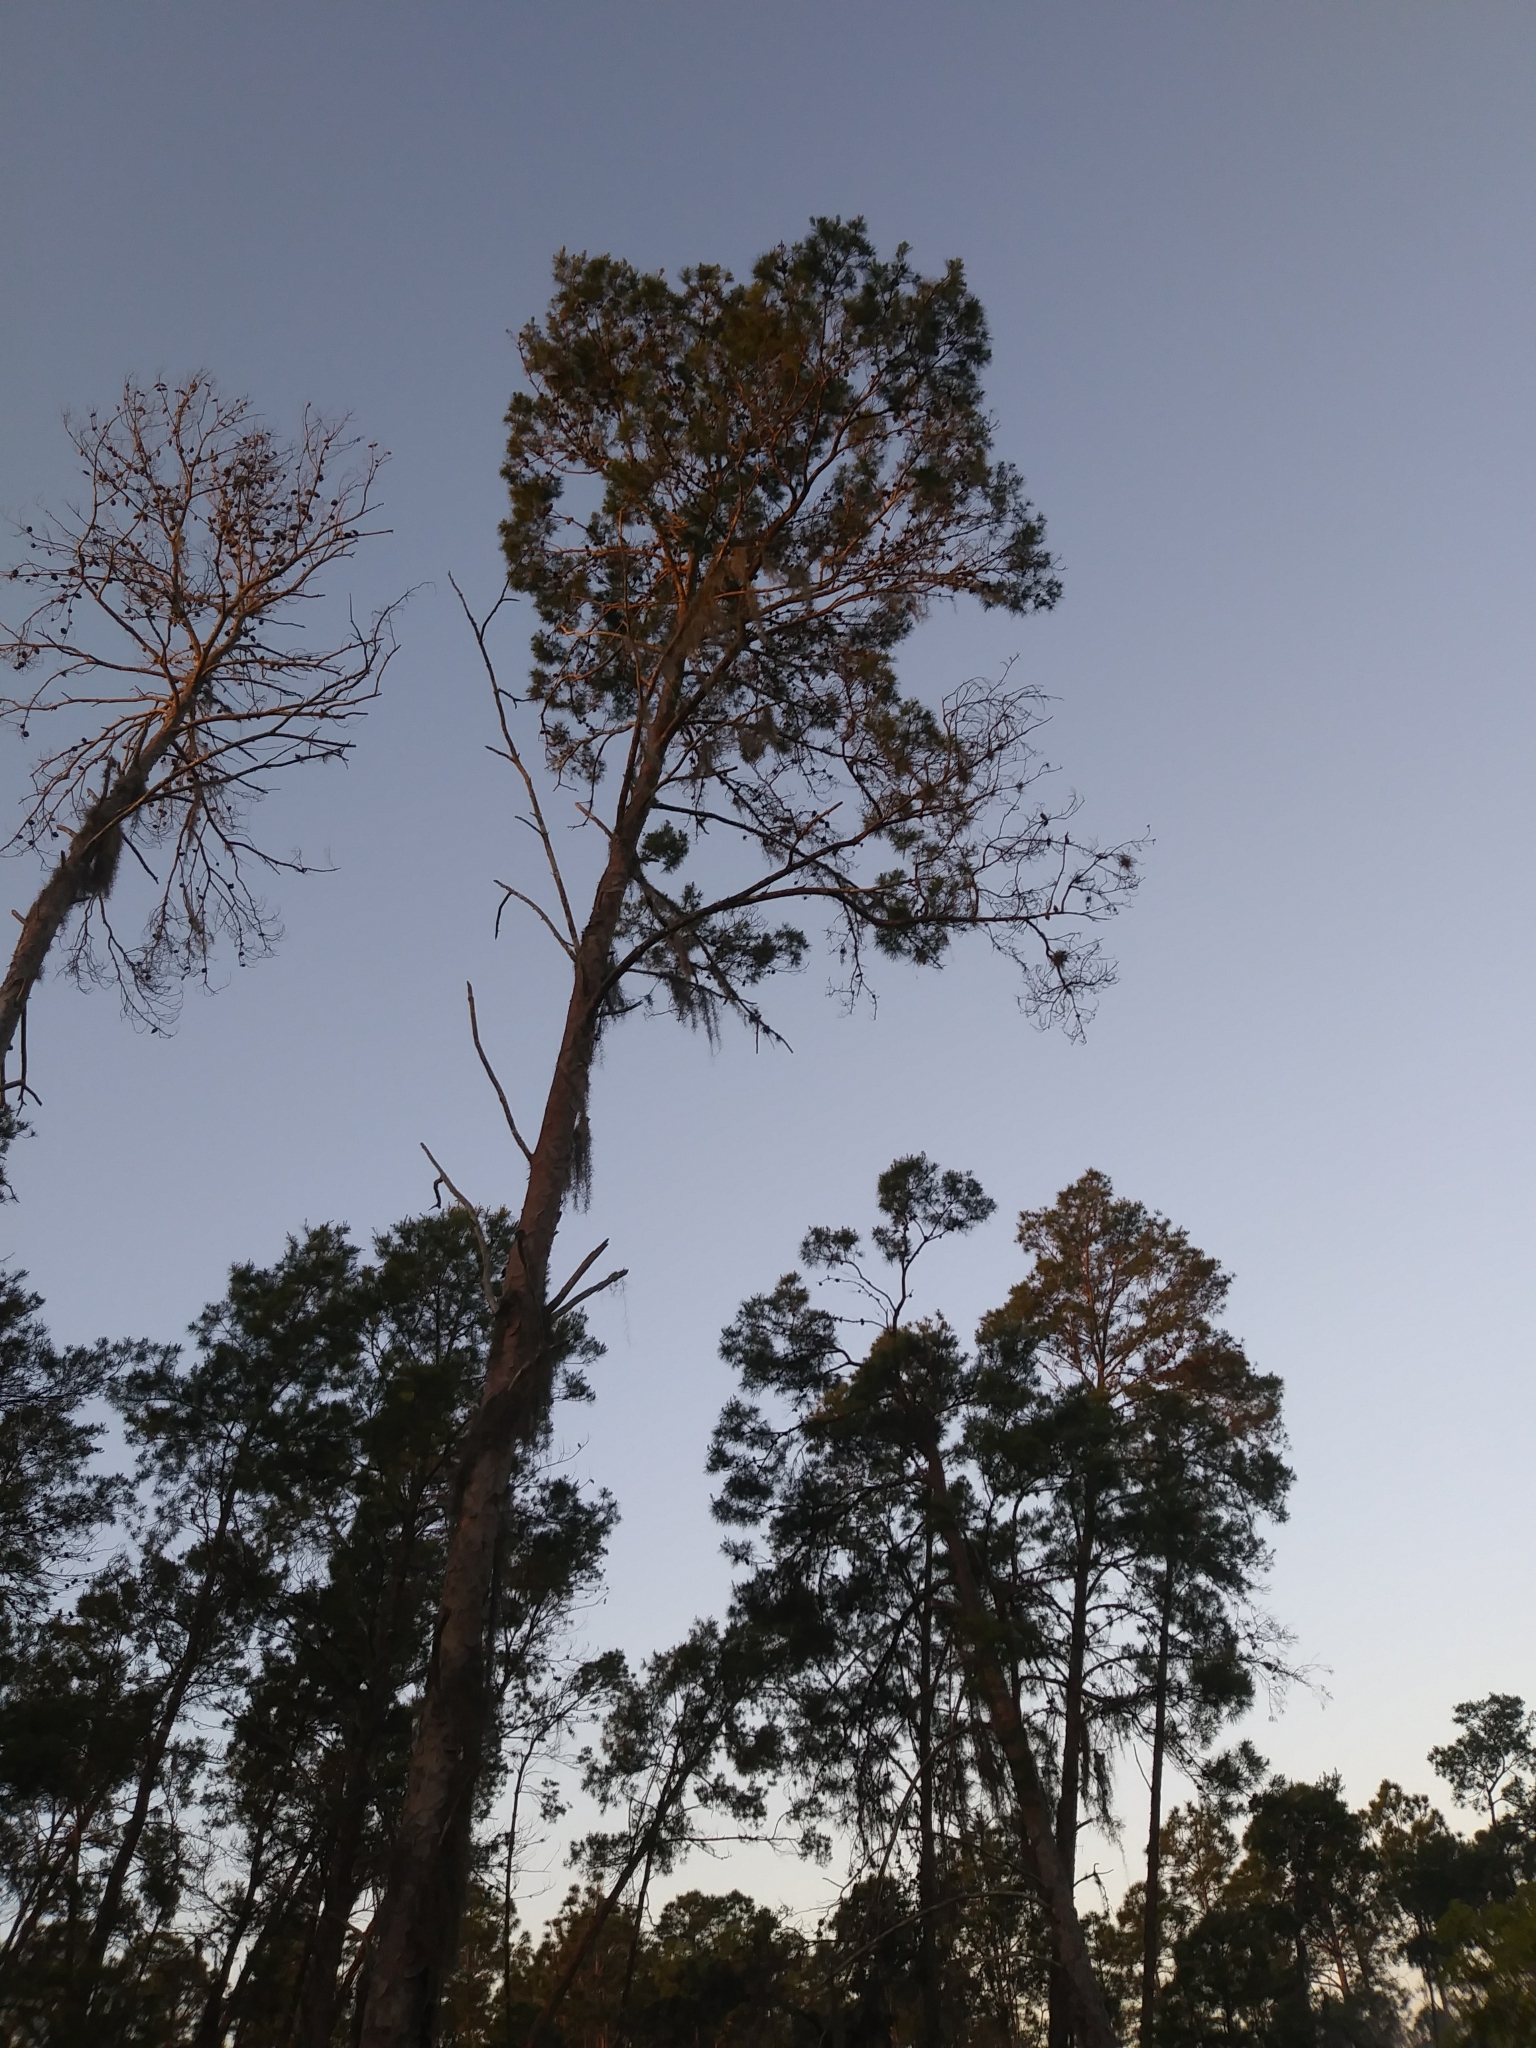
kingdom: Plantae
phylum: Tracheophyta
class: Pinopsida
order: Pinales
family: Pinaceae
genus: Pinus
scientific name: Pinus clausa
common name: Sand pine
